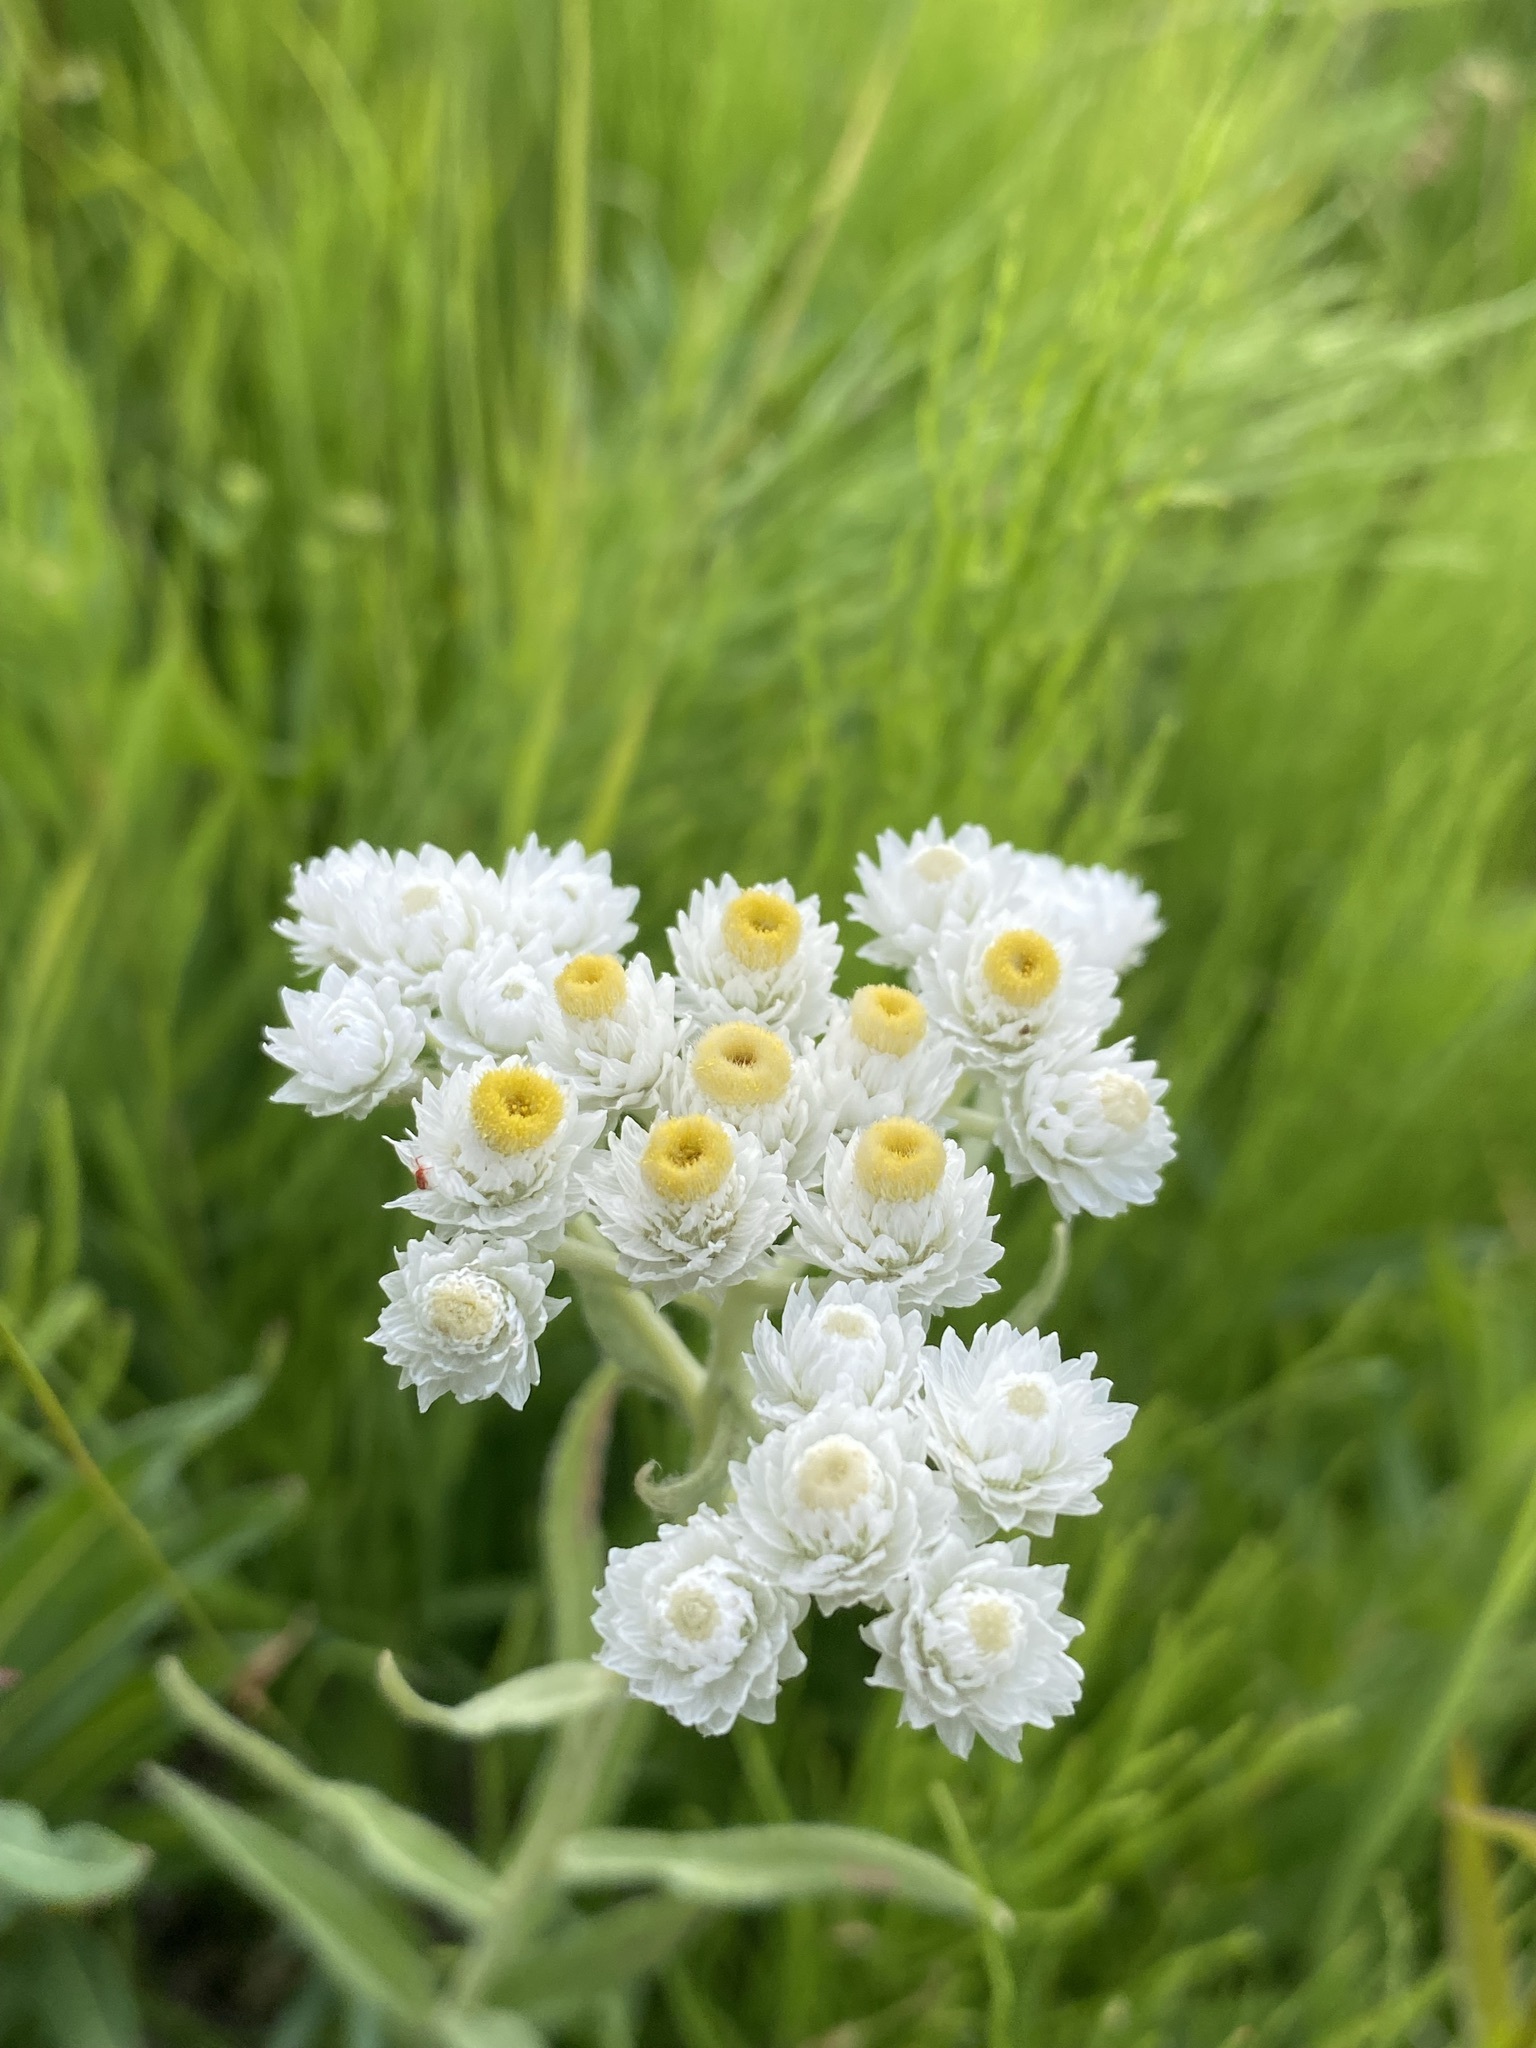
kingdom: Plantae
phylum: Tracheophyta
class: Magnoliopsida
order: Asterales
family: Asteraceae
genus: Anaphalis
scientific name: Anaphalis margaritacea
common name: Pearly everlasting
